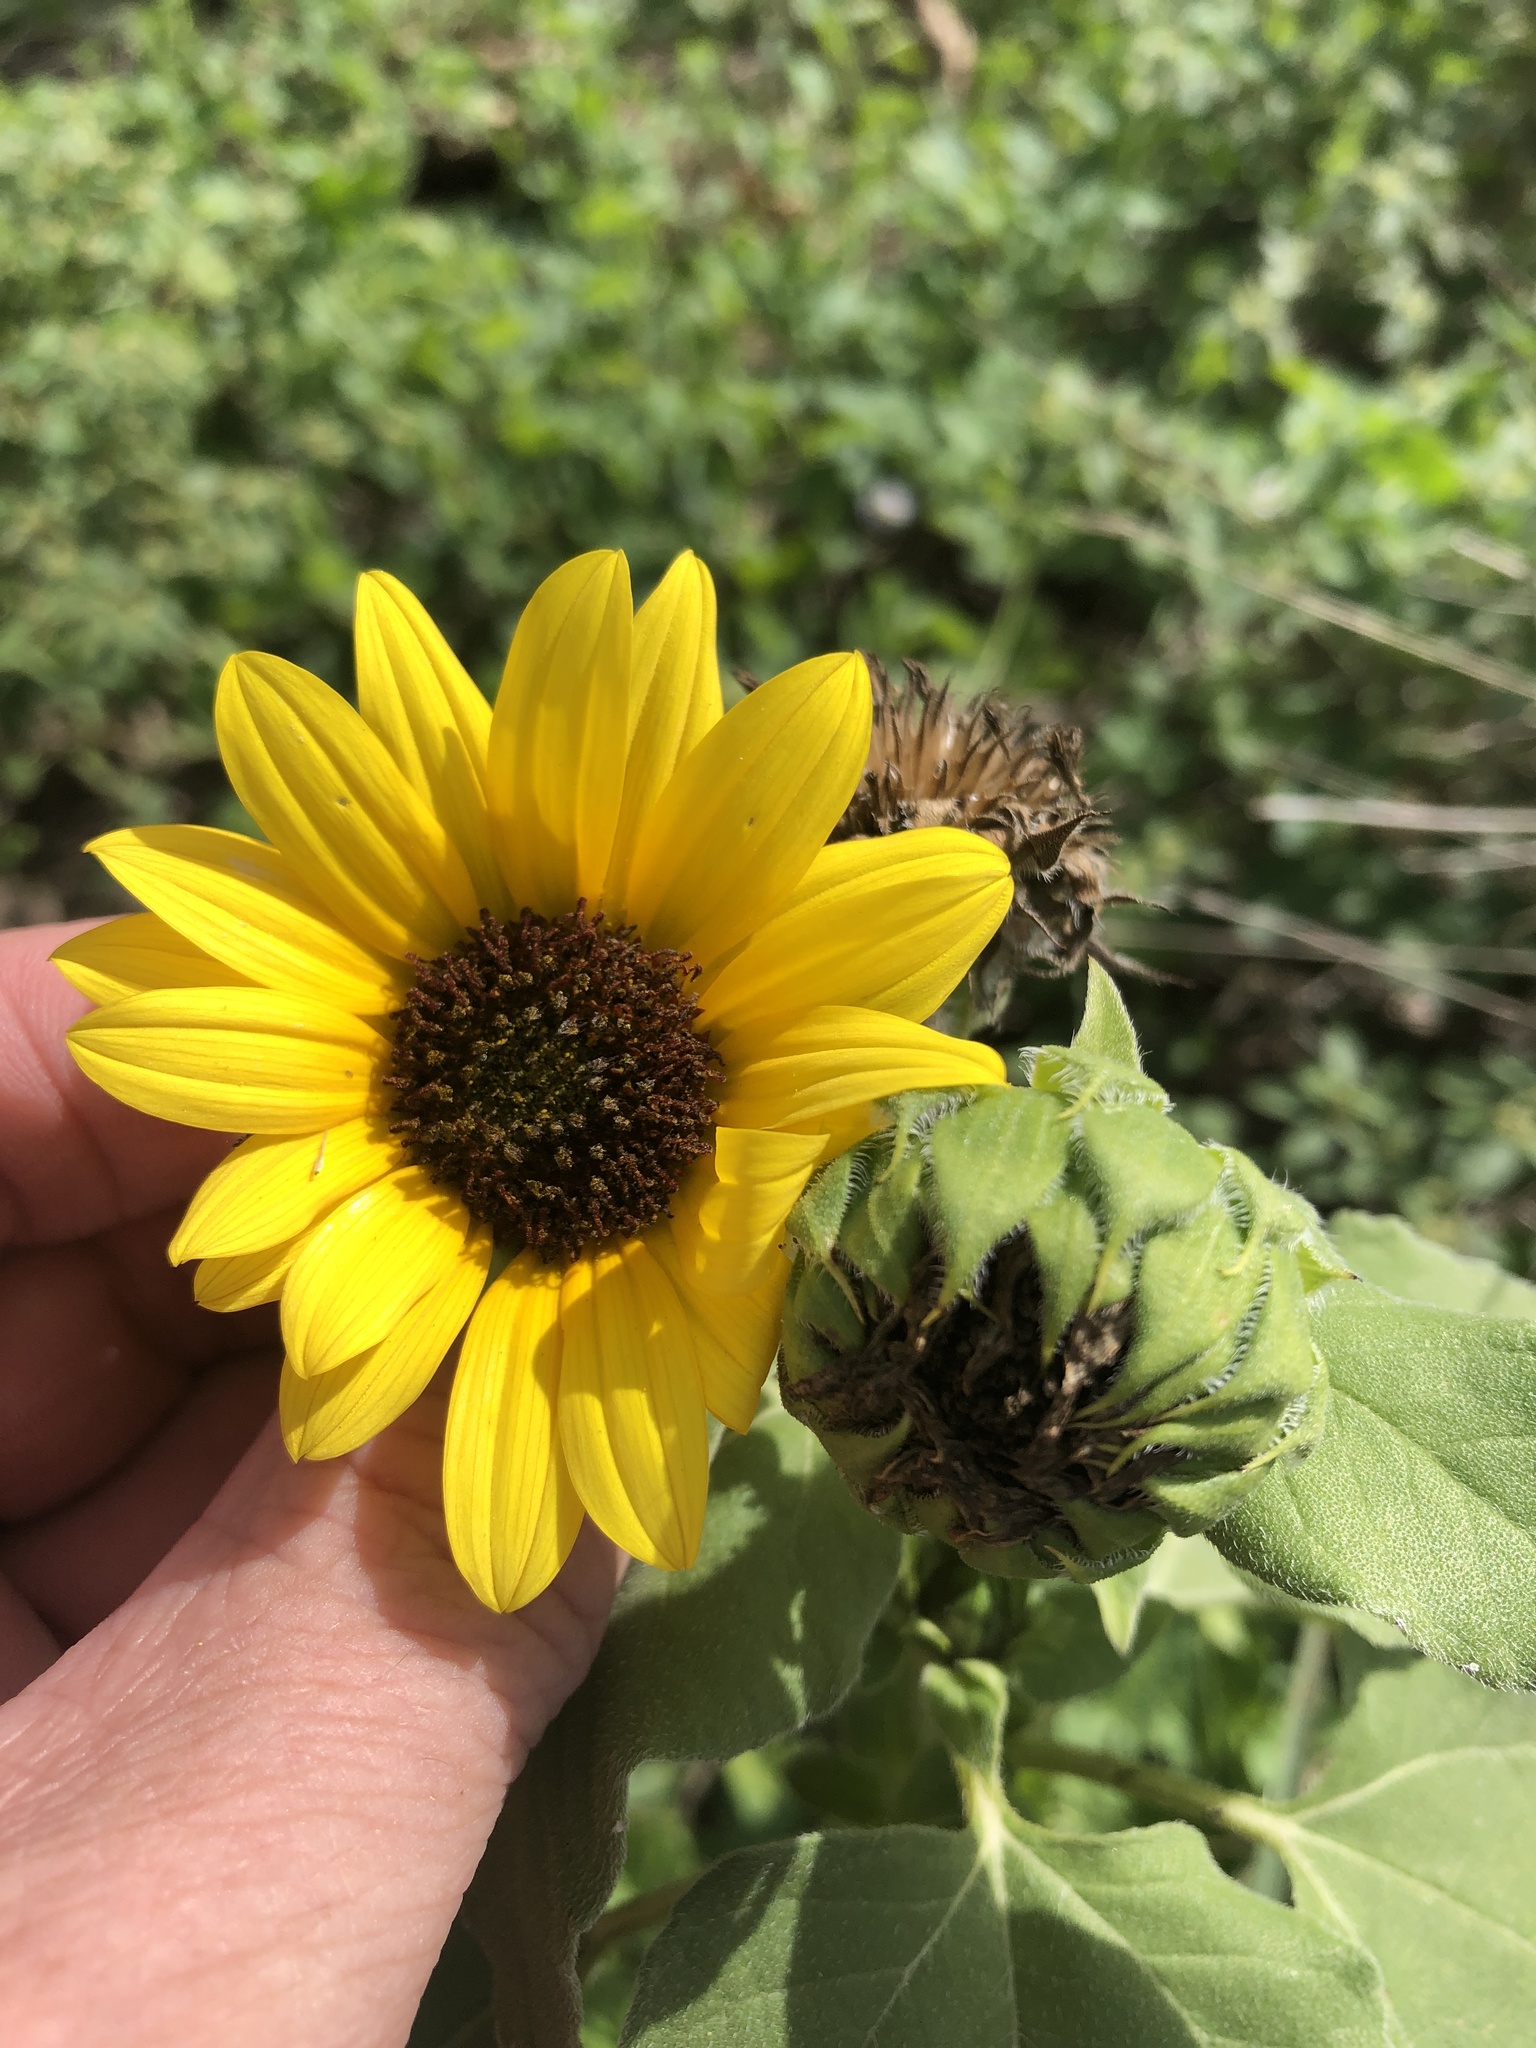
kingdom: Plantae
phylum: Tracheophyta
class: Magnoliopsida
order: Asterales
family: Asteraceae
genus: Helianthus
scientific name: Helianthus annuus
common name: Sunflower
